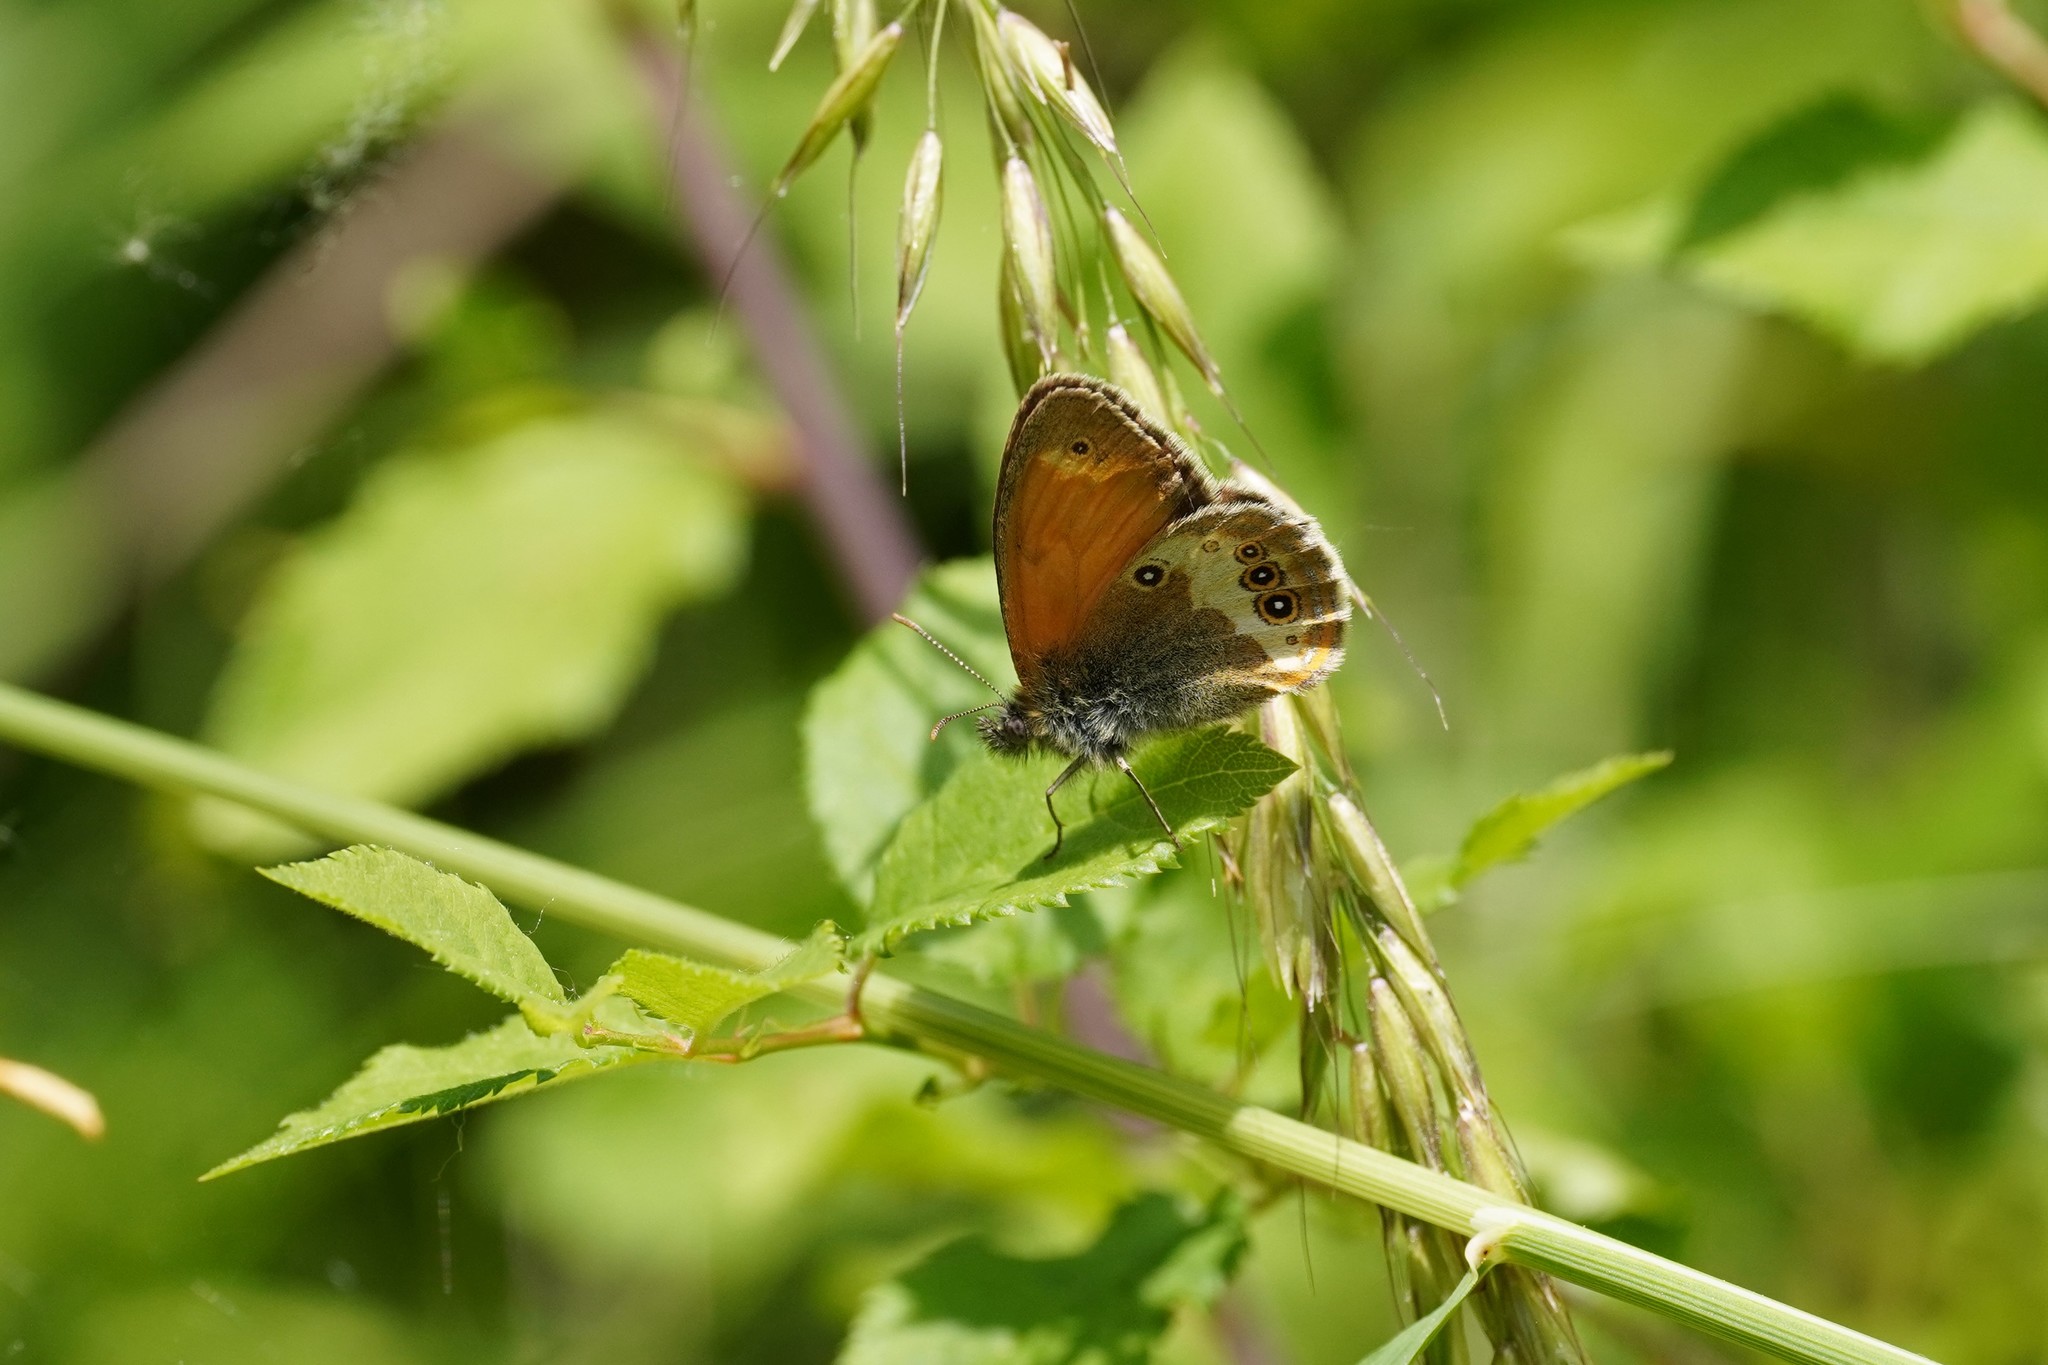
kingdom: Animalia
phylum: Arthropoda
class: Insecta
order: Lepidoptera
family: Nymphalidae
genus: Coenonympha
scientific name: Coenonympha arcania
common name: Pearly heath
